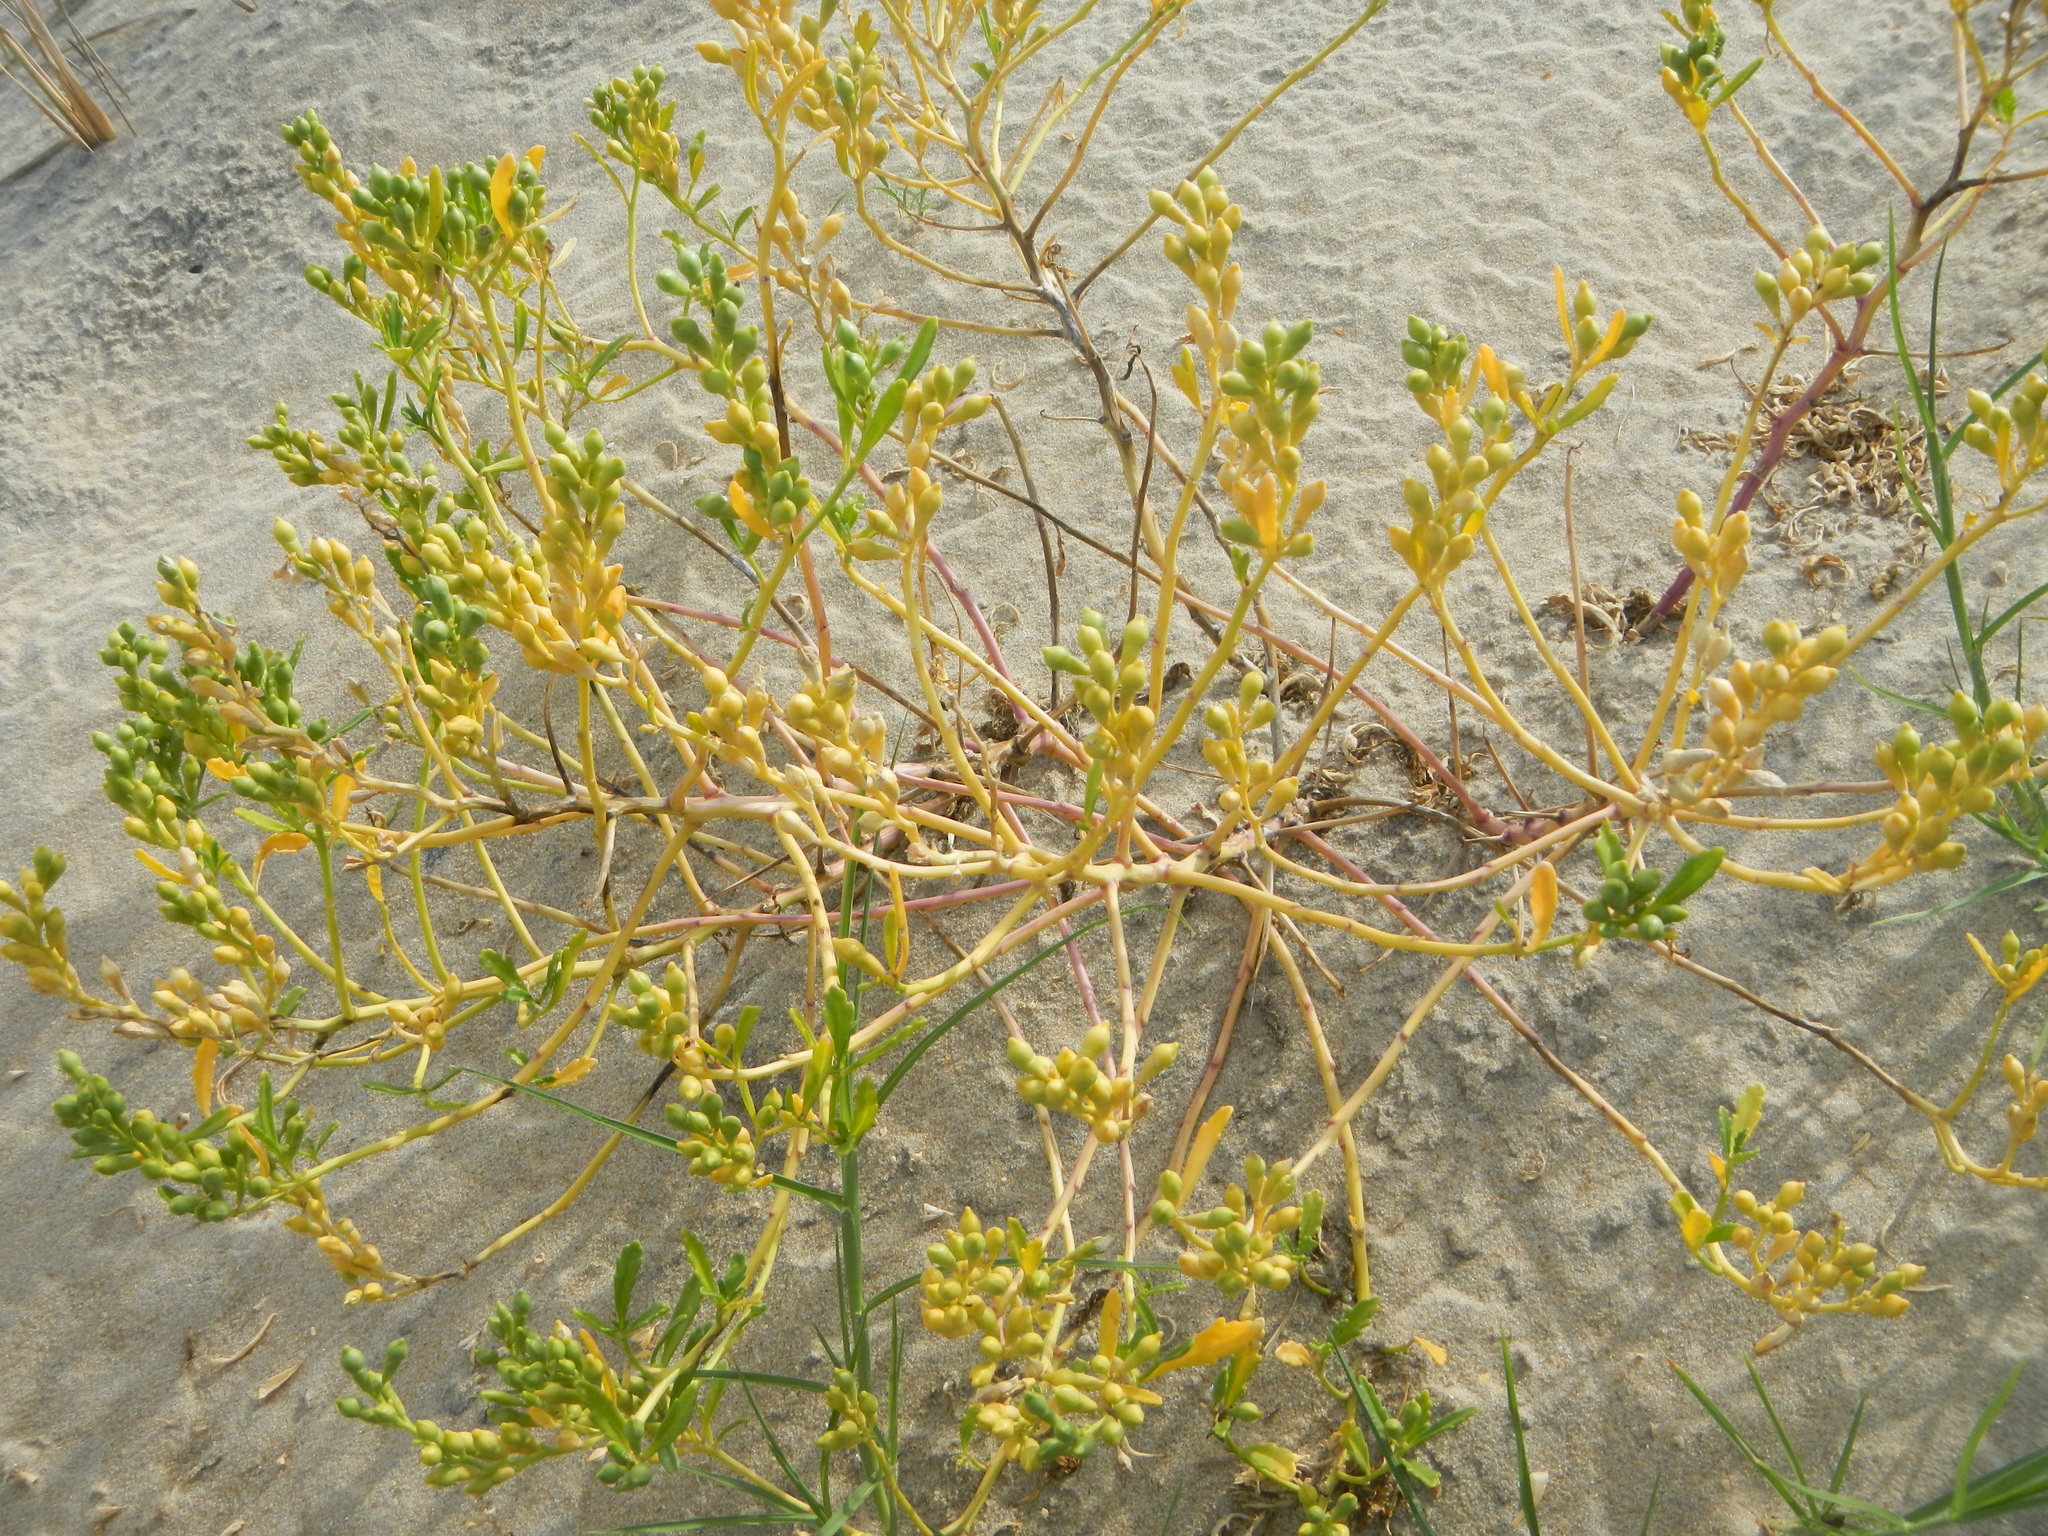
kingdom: Plantae
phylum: Tracheophyta
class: Magnoliopsida
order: Brassicales
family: Brassicaceae
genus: Cakile
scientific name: Cakile edentula
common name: American sea rocket
